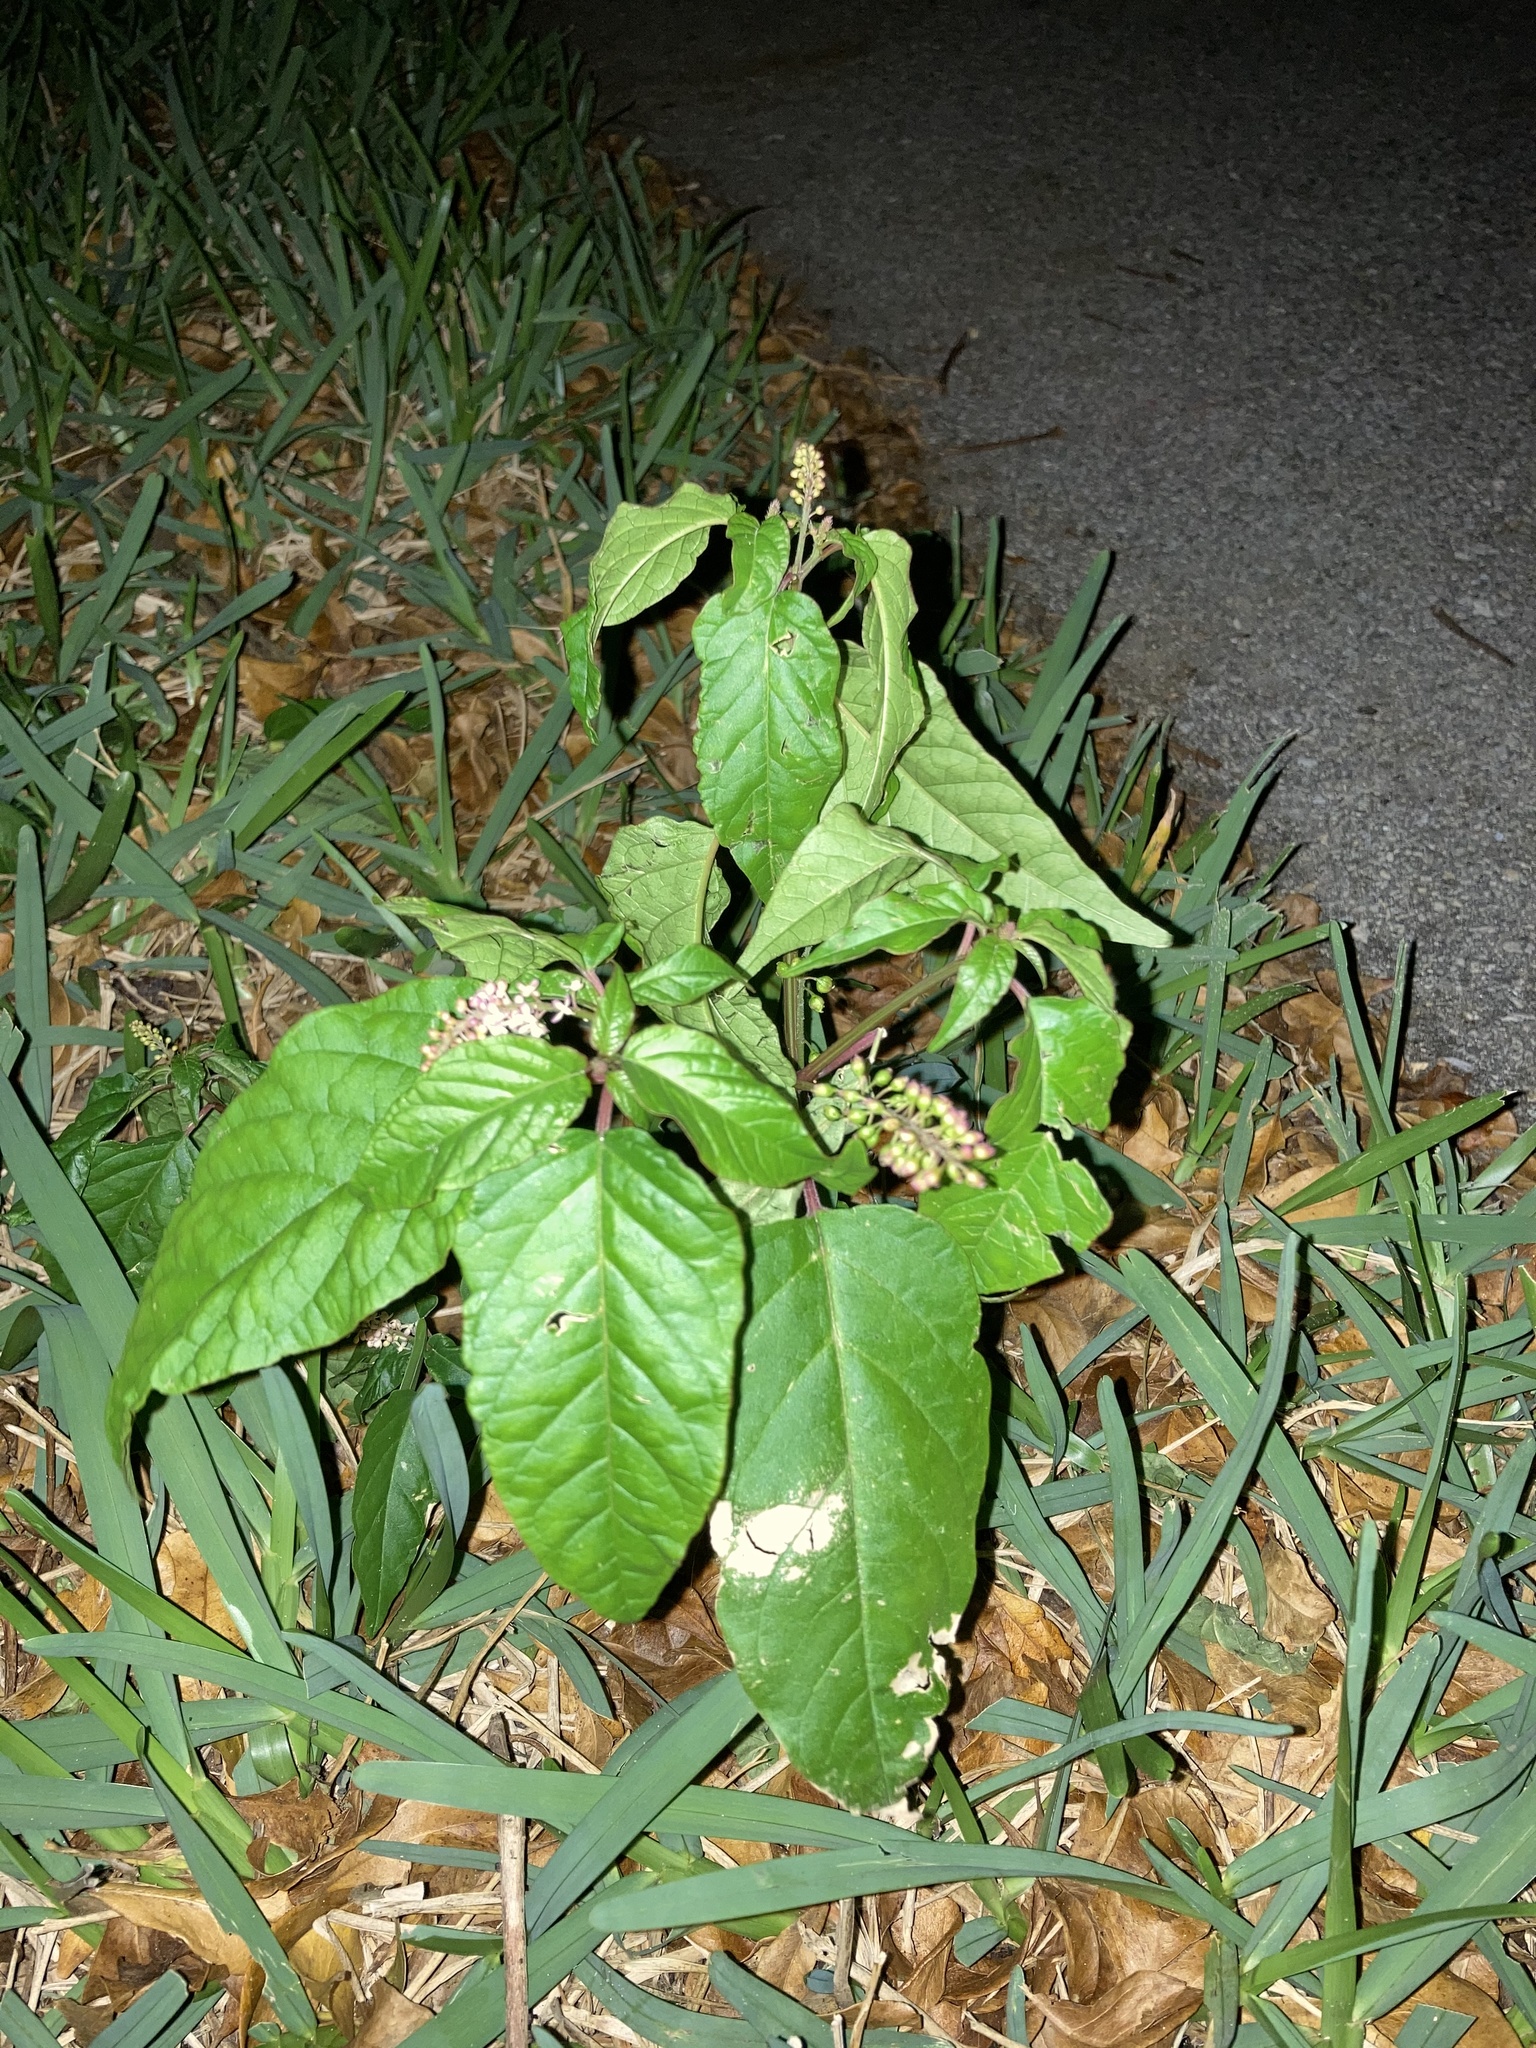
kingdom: Plantae
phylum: Tracheophyta
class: Magnoliopsida
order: Caryophyllales
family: Phytolaccaceae
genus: Rivina
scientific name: Rivina humilis
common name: Rougeplant
